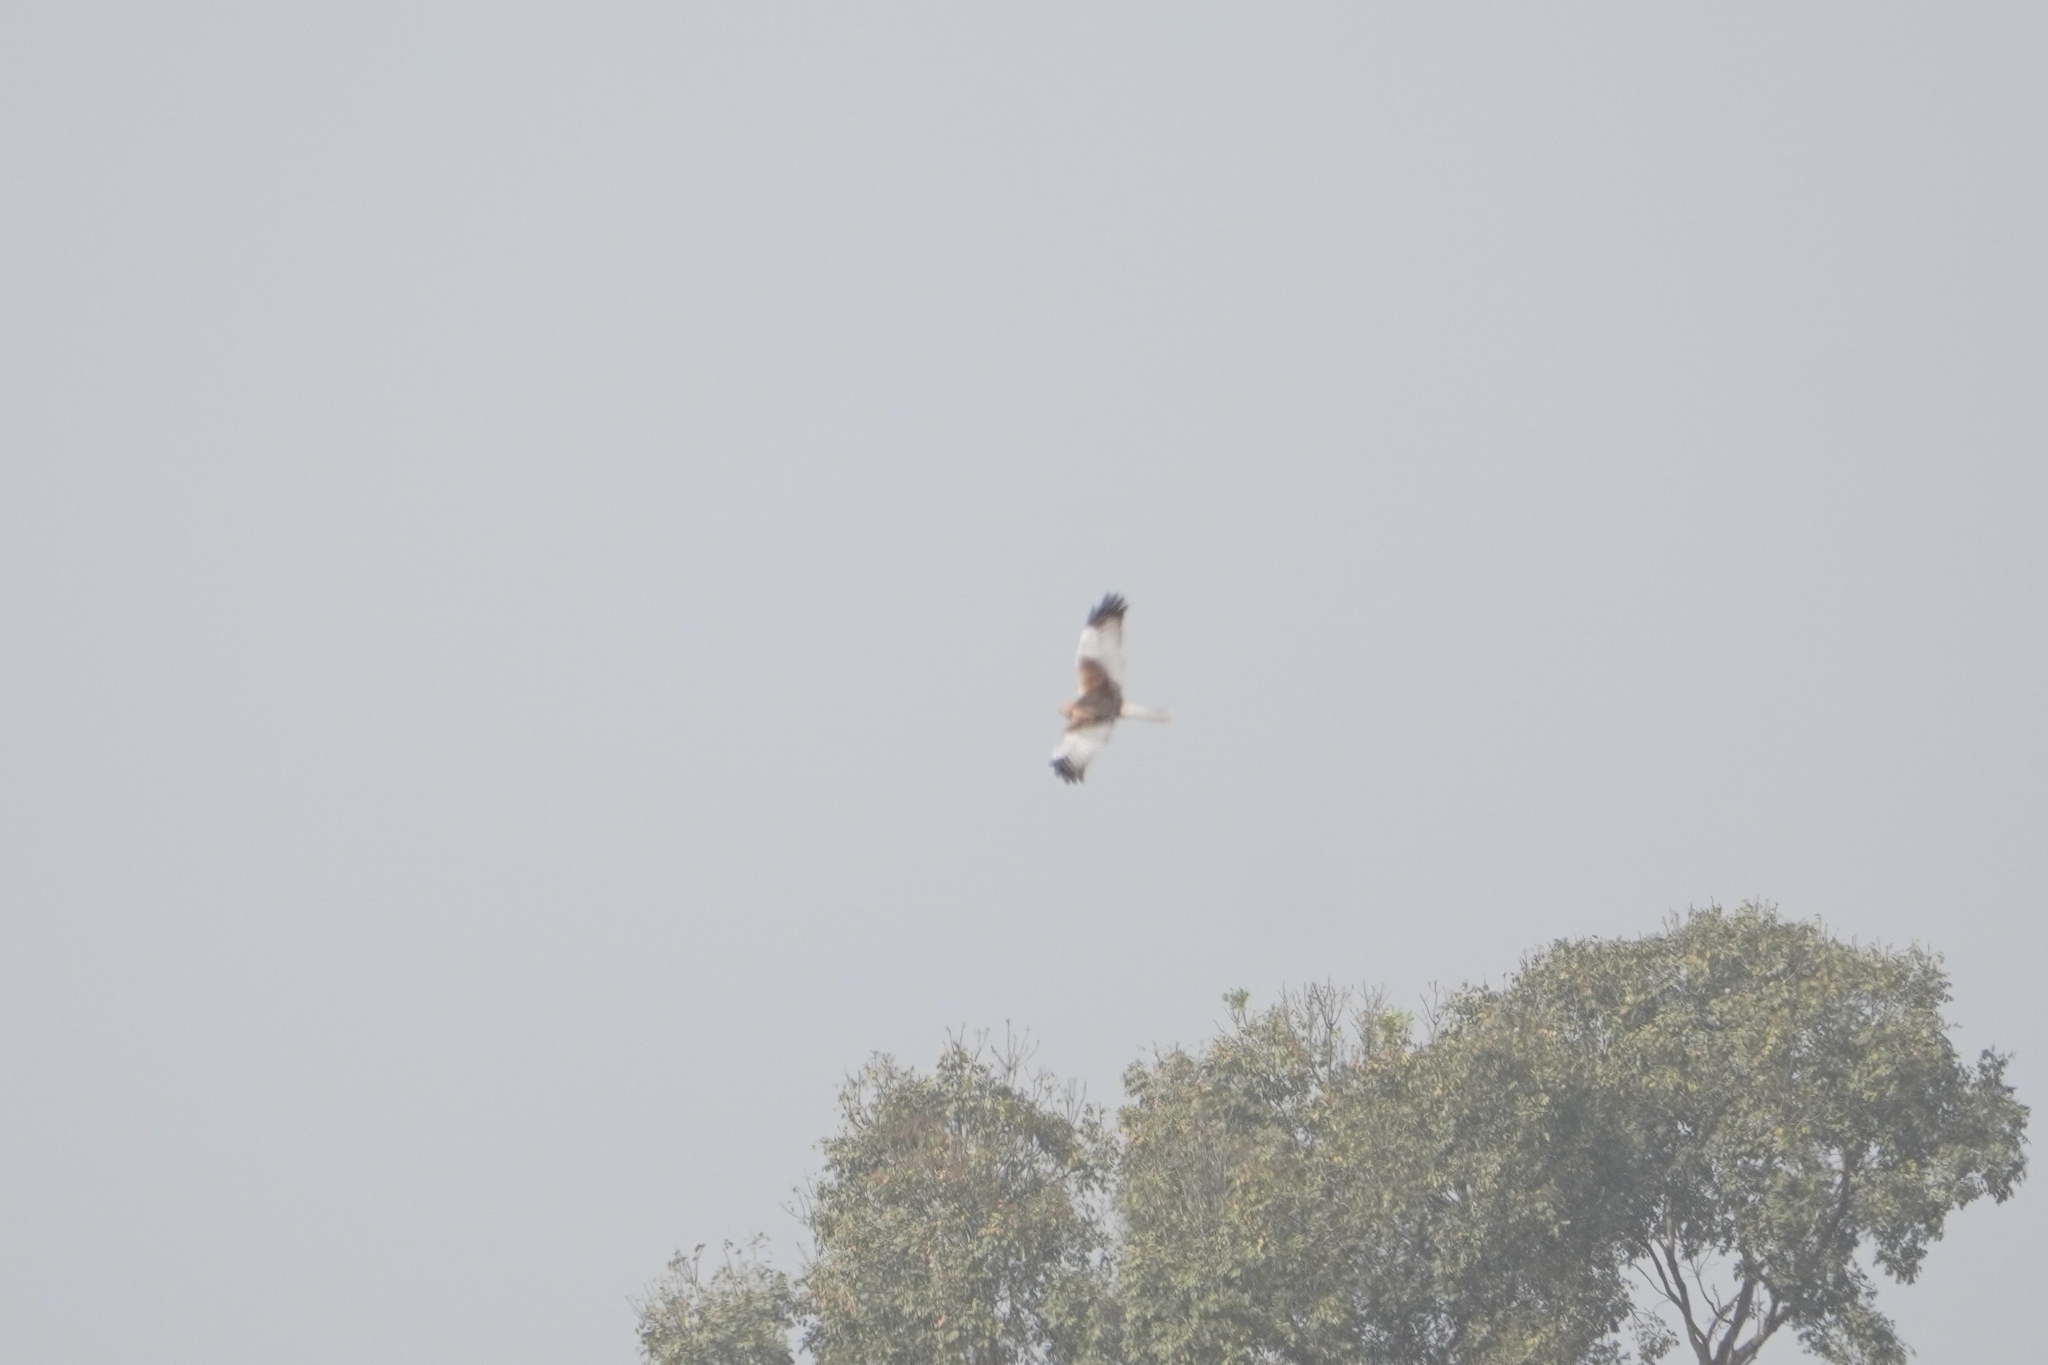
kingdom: Animalia
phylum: Chordata
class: Aves
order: Accipitriformes
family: Accipitridae
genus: Circus
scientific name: Circus aeruginosus
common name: Western marsh harrier
